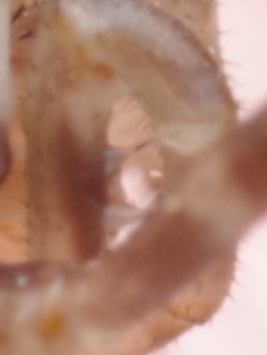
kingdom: Animalia
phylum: Arthropoda
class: Arachnida
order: Opiliones
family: Phalangiidae
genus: Rilaena
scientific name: Rilaena triangularis
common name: Spring harvestman
